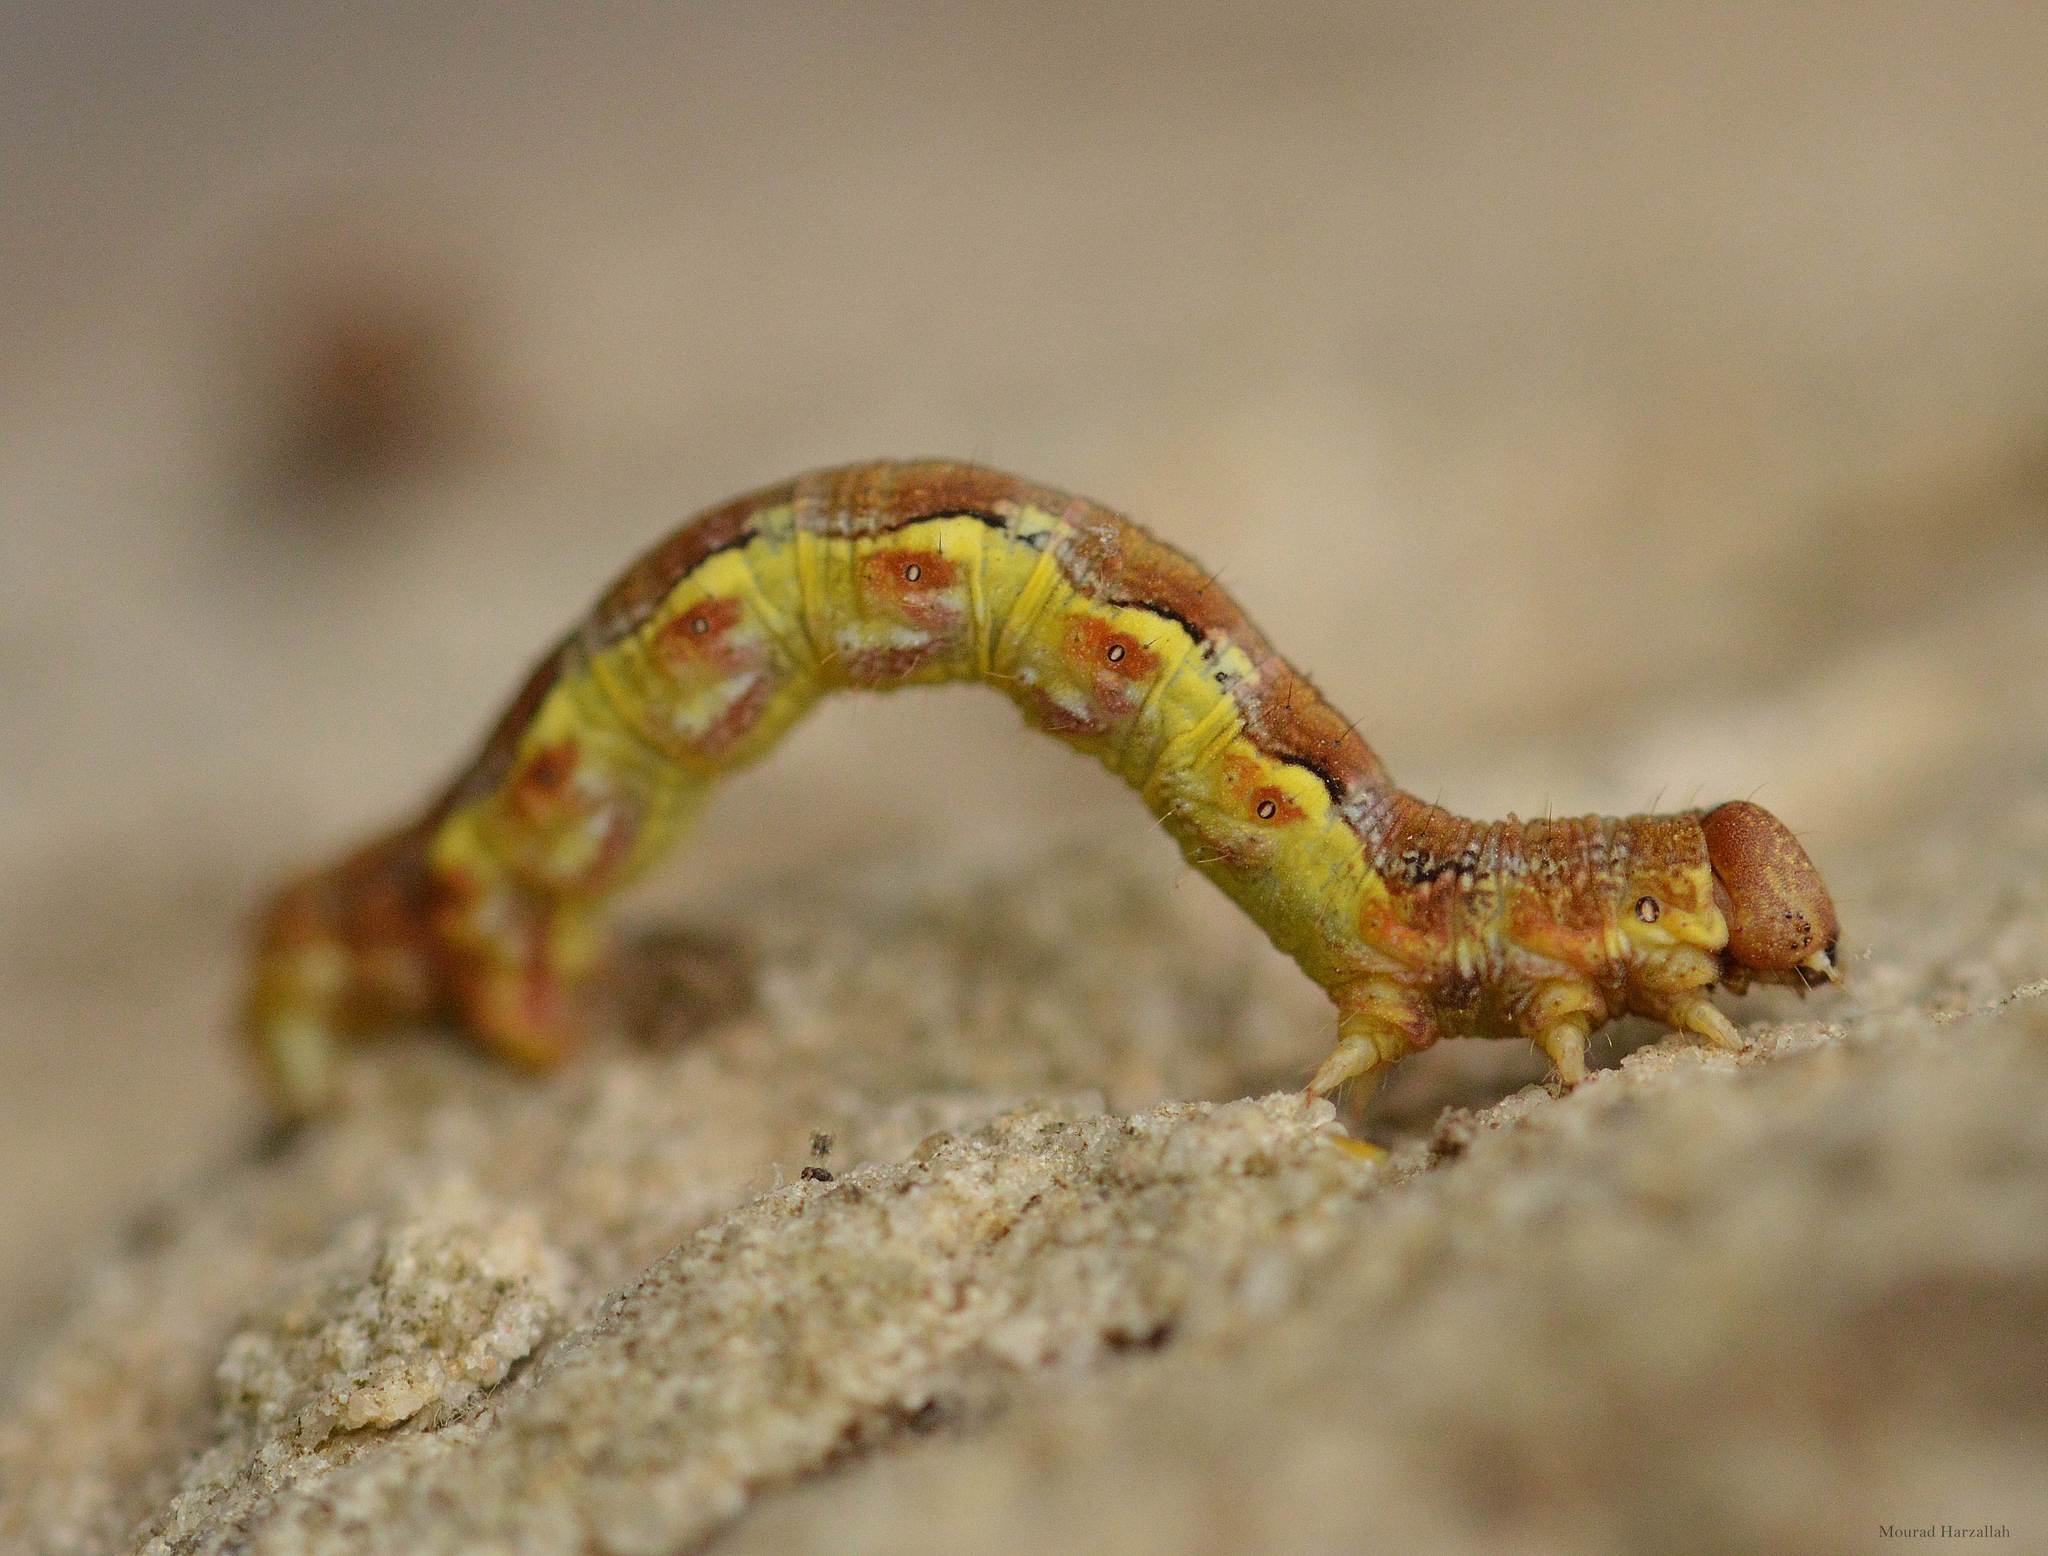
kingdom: Animalia
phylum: Arthropoda
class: Insecta
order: Lepidoptera
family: Geometridae
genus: Erannis
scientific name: Erannis defoliaria
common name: Mottled umber
